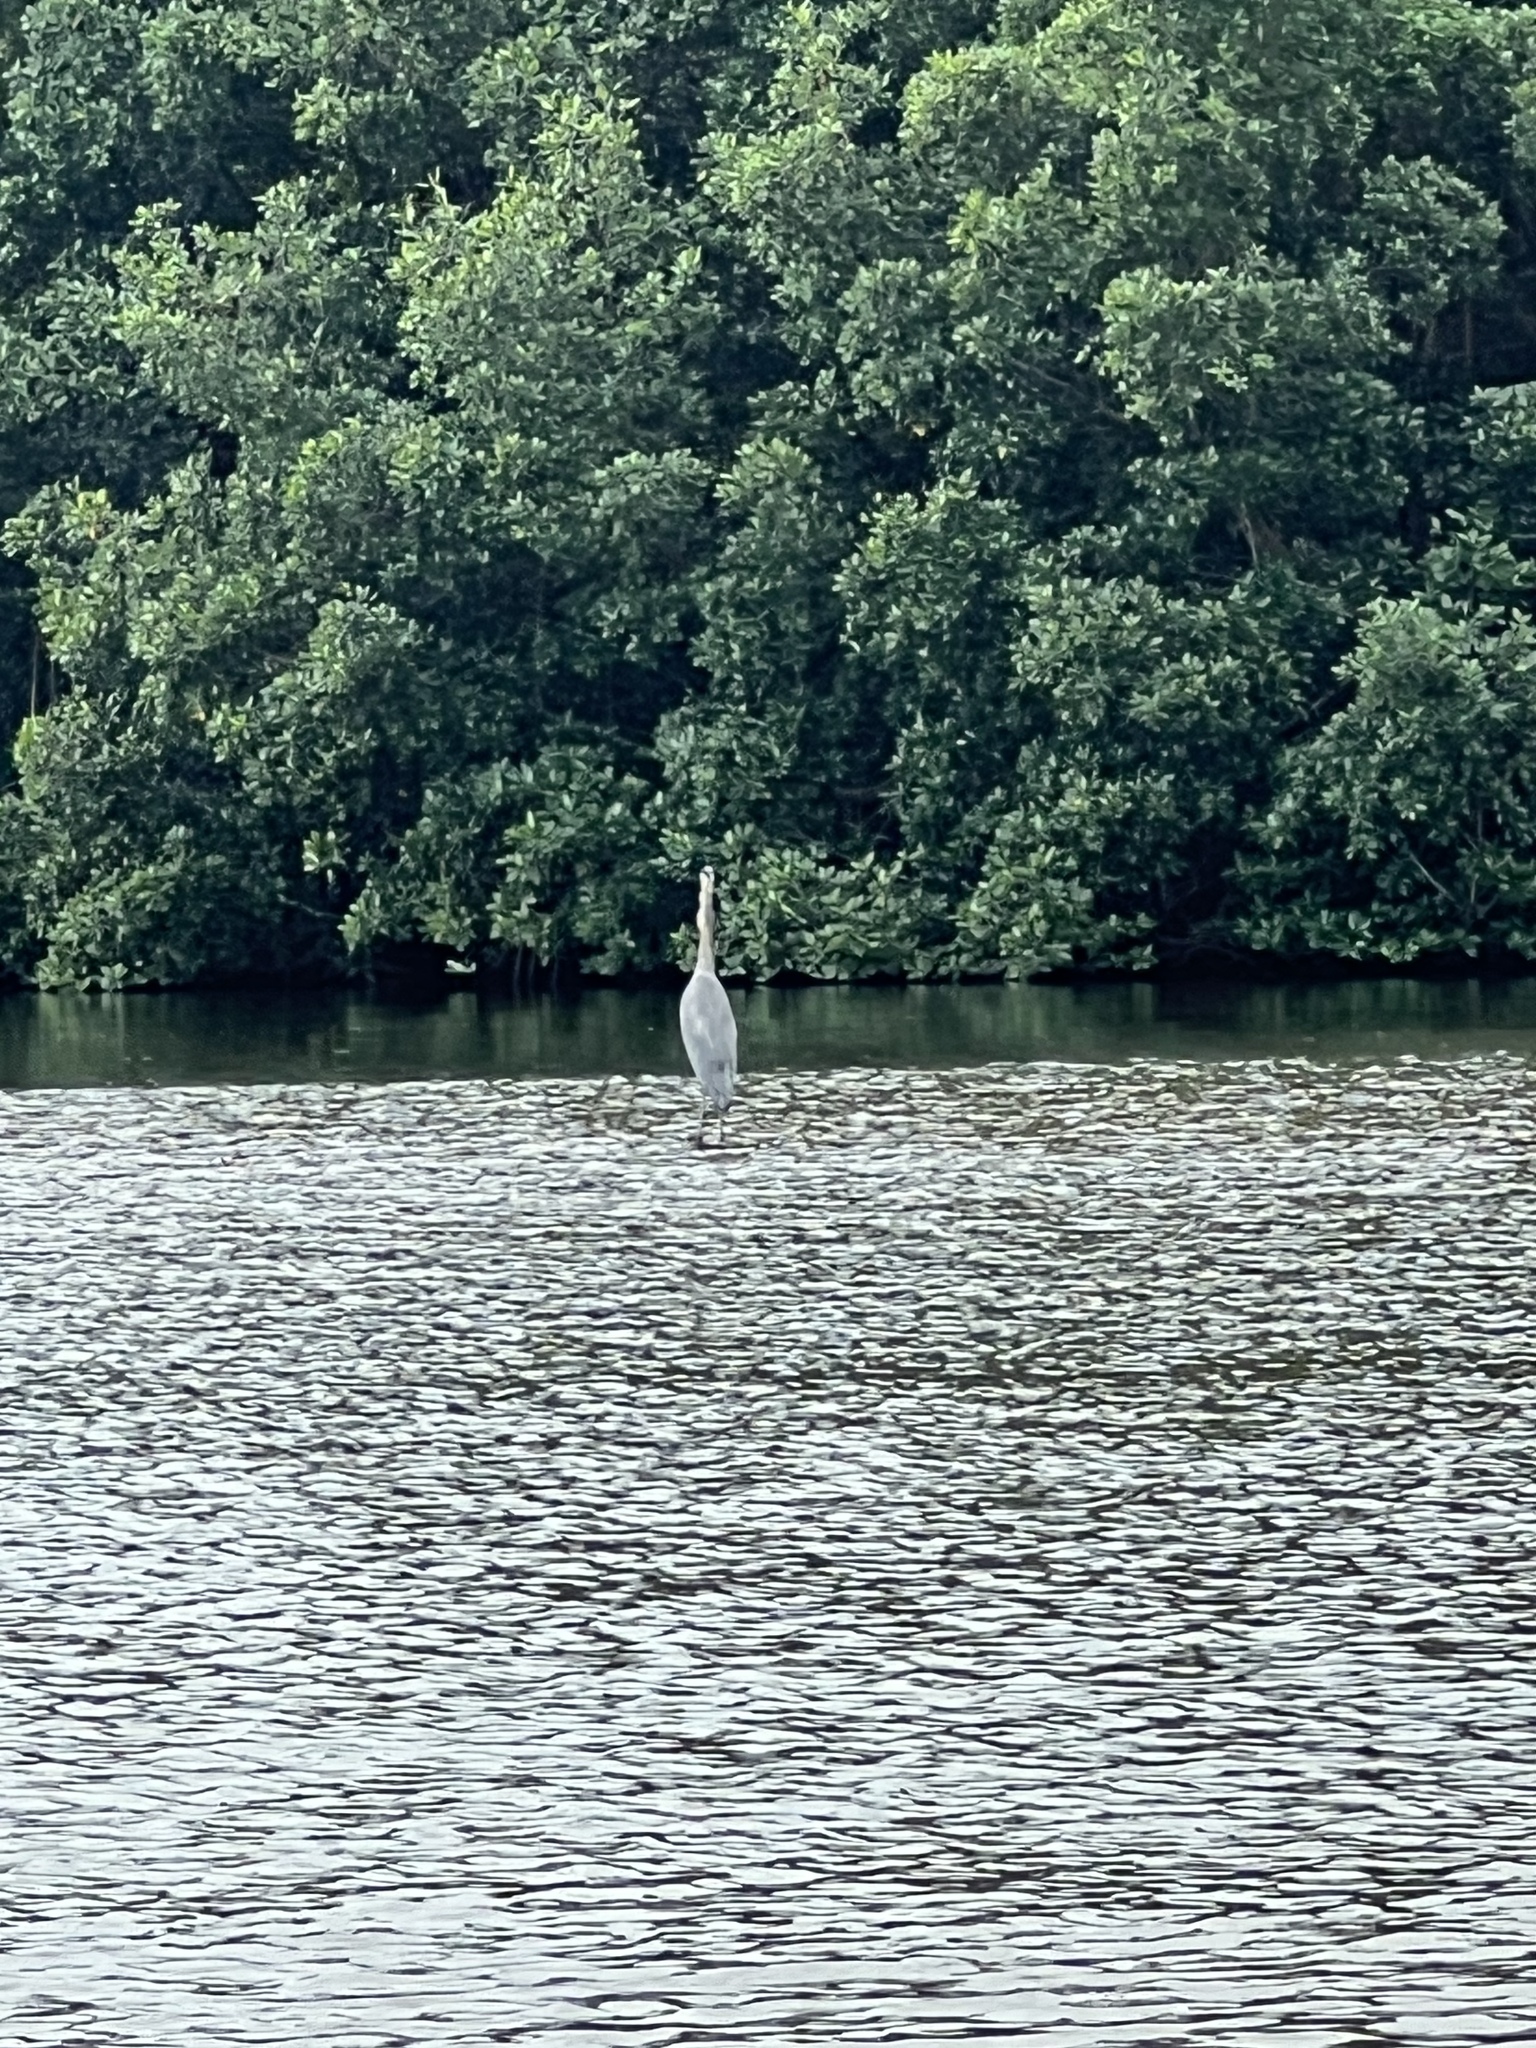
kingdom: Animalia
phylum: Chordata
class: Aves
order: Pelecaniformes
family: Ardeidae
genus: Ardea
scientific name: Ardea herodias
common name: Great blue heron
